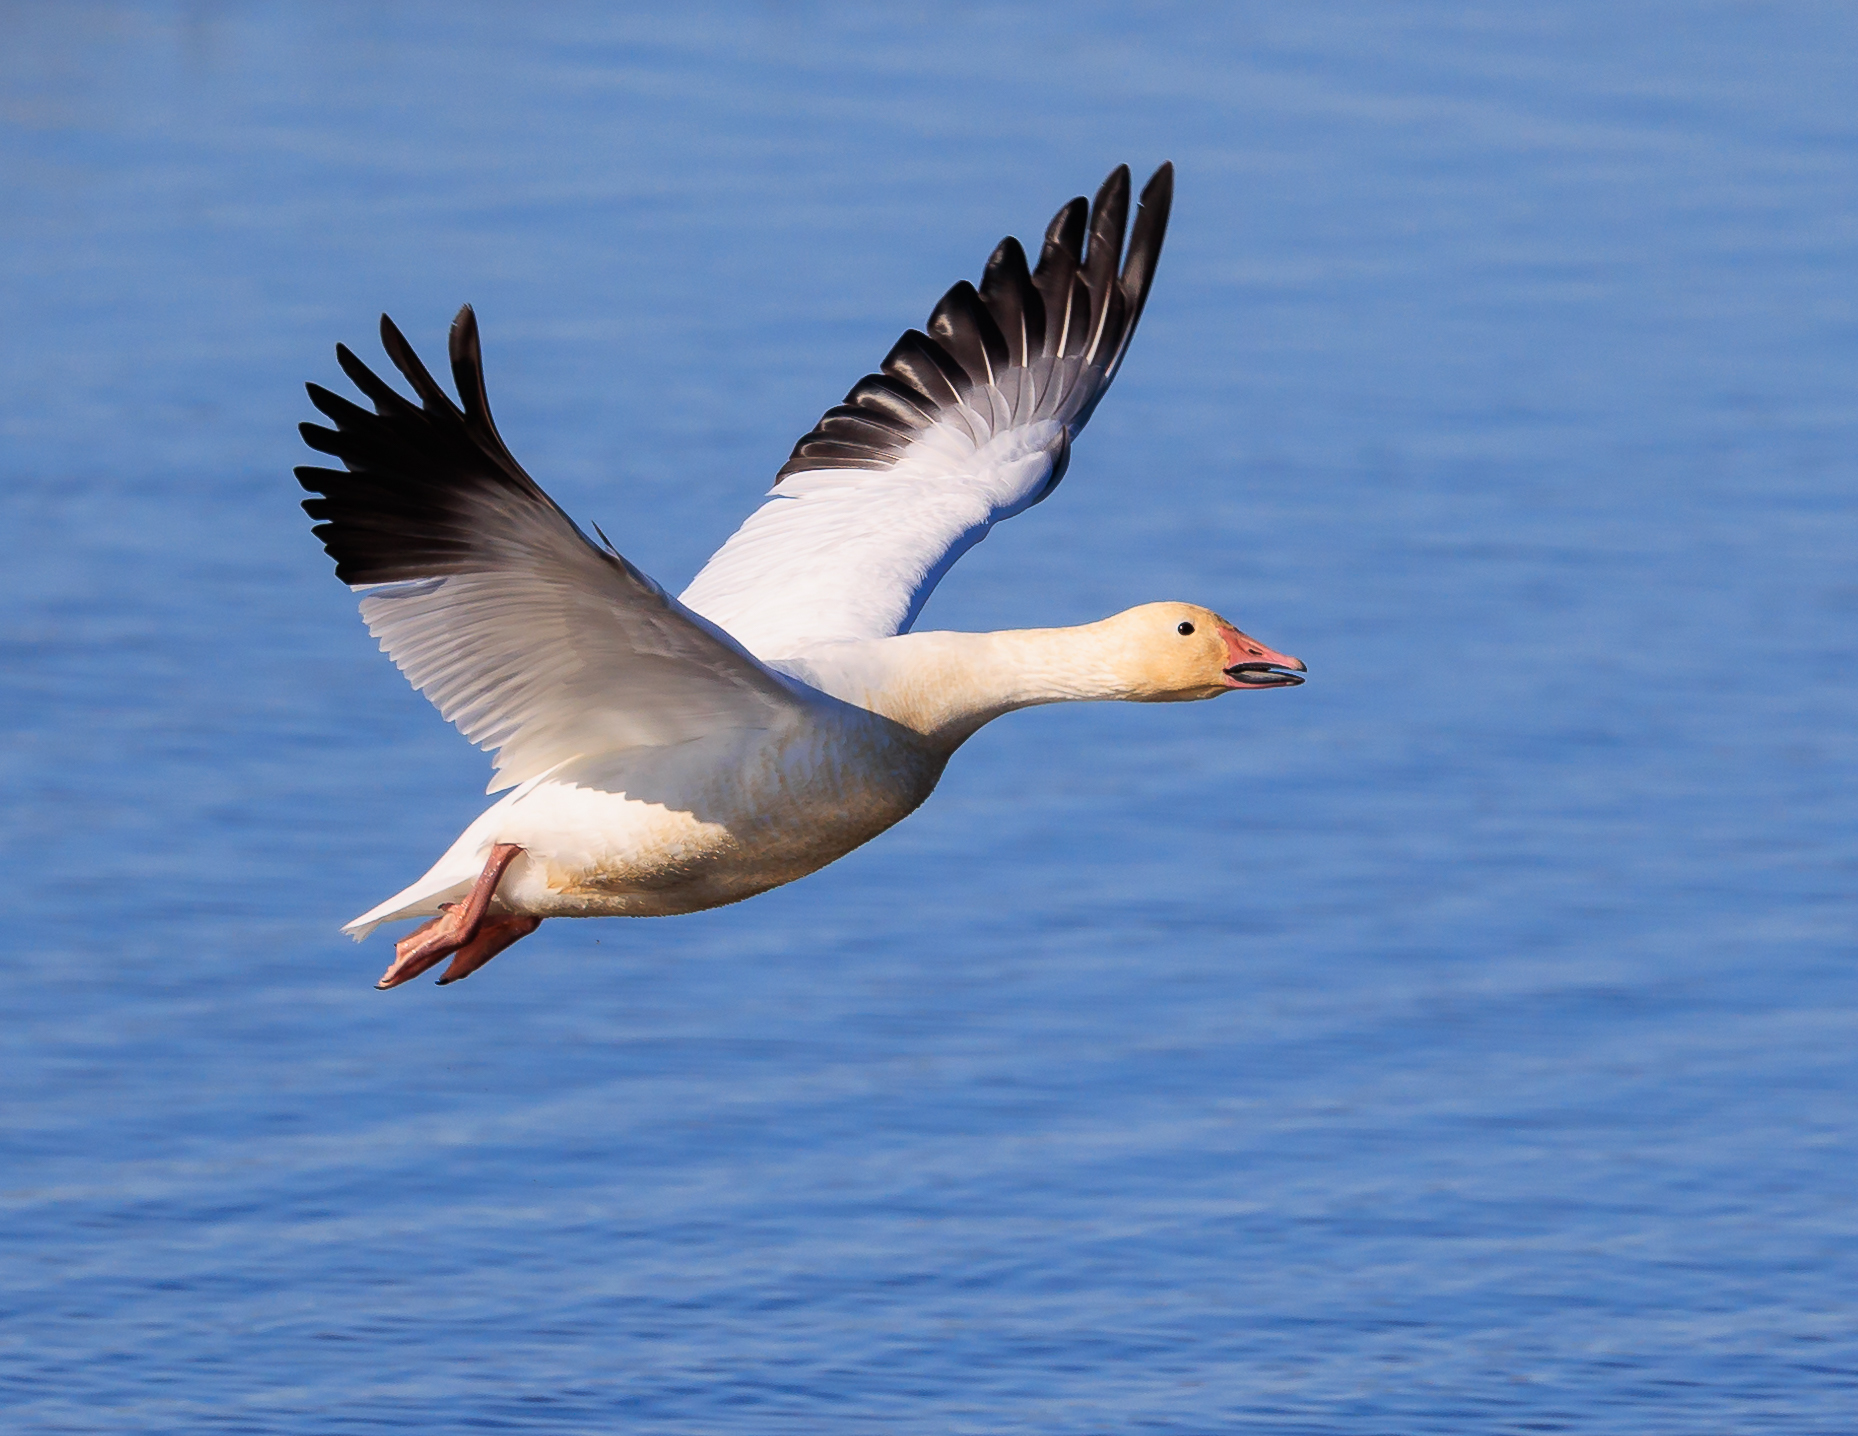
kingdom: Animalia
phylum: Chordata
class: Aves
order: Anseriformes
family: Anatidae
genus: Anser
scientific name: Anser caerulescens
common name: Snow goose
